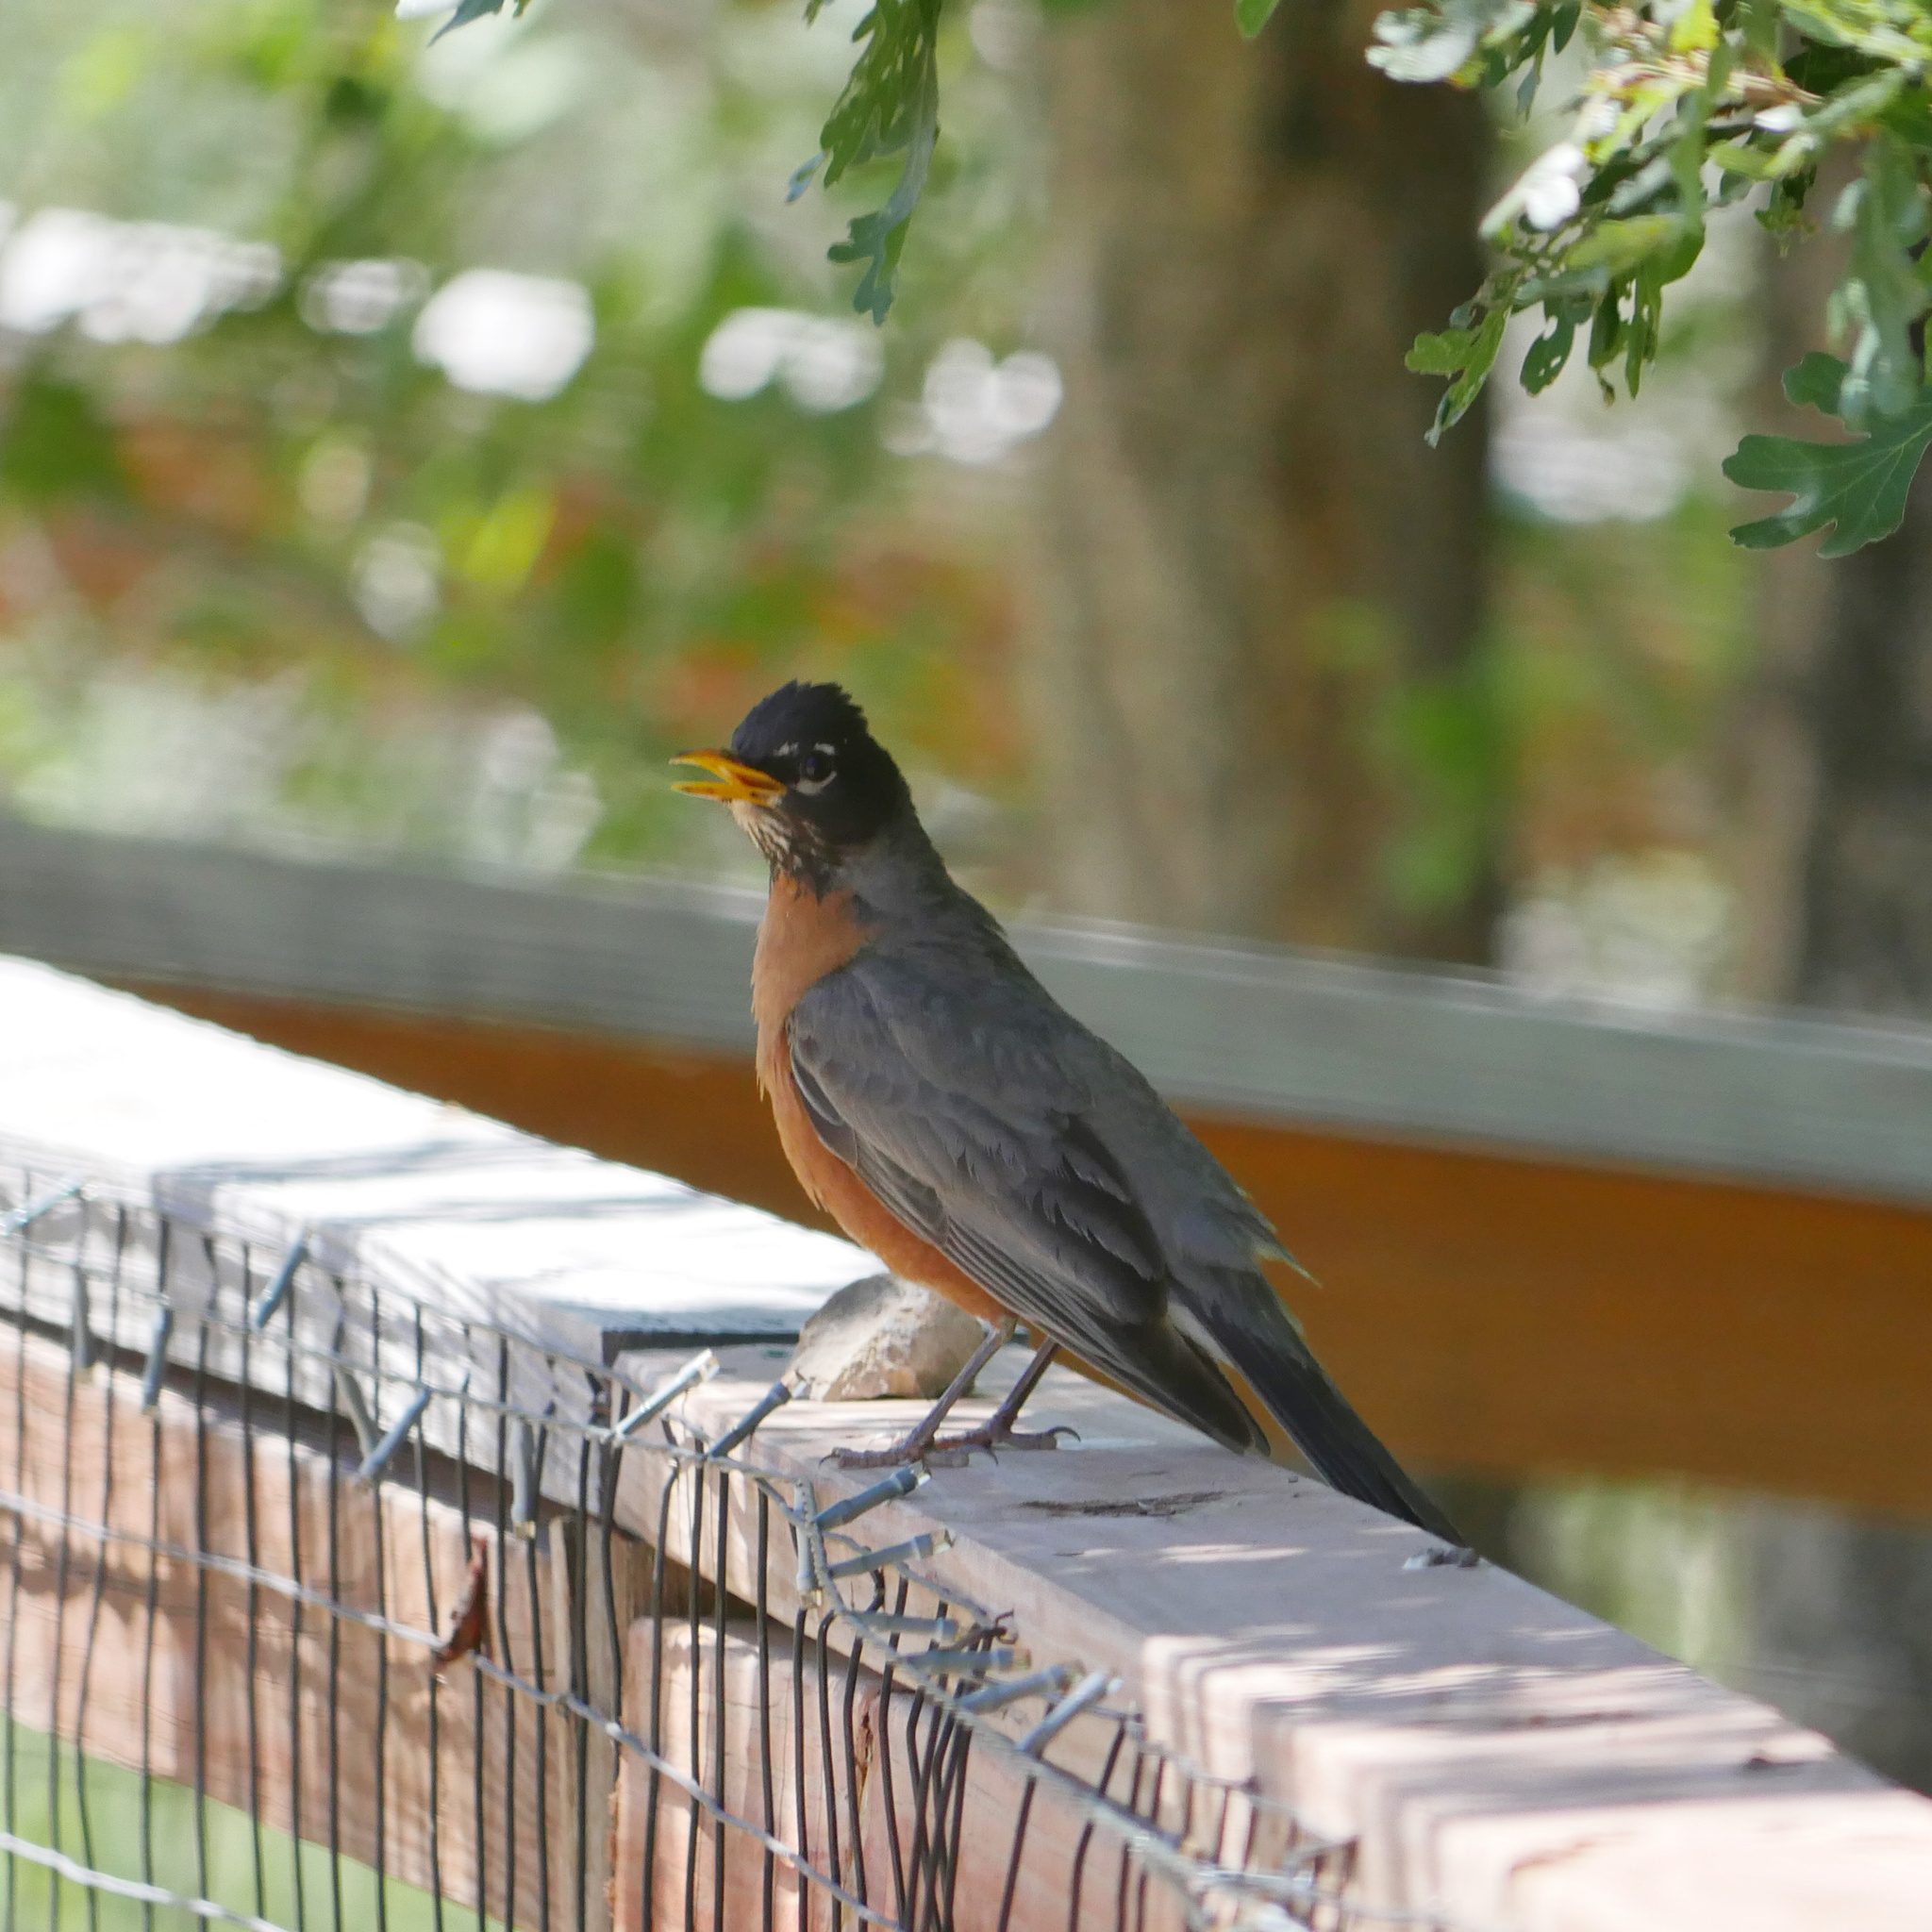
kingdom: Animalia
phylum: Chordata
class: Aves
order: Passeriformes
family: Turdidae
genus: Turdus
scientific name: Turdus migratorius
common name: American robin
